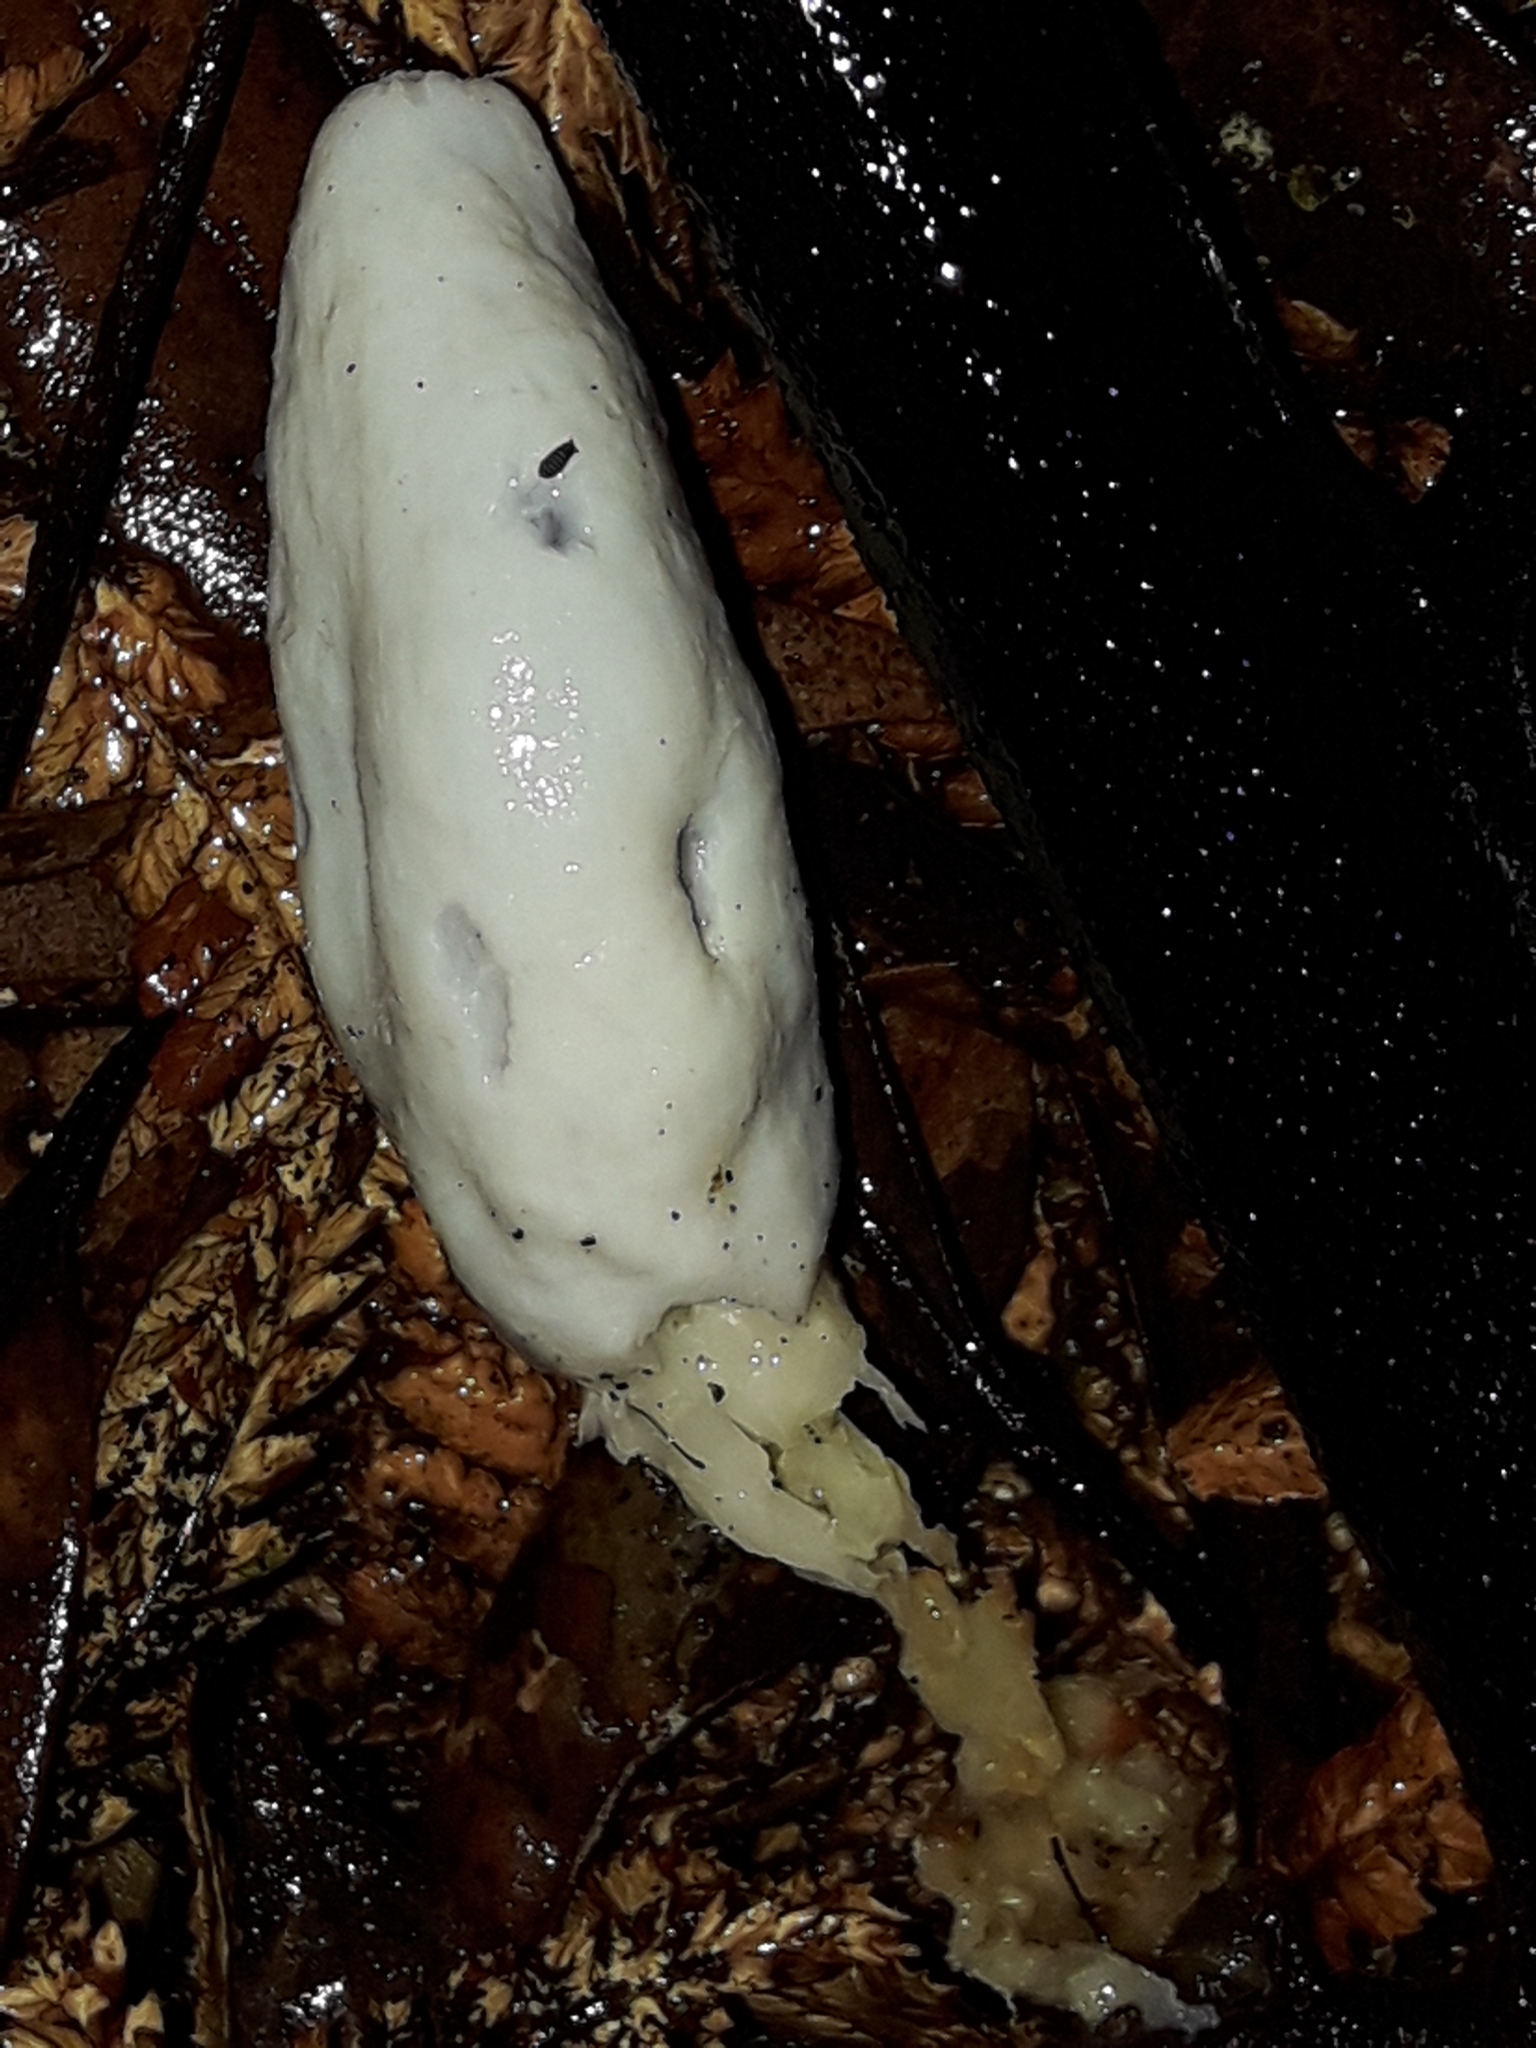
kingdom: Fungi
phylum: Basidiomycota
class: Agaricomycetes
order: Agaricales
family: Agaricaceae
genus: Clavogaster
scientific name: Clavogaster virescens
